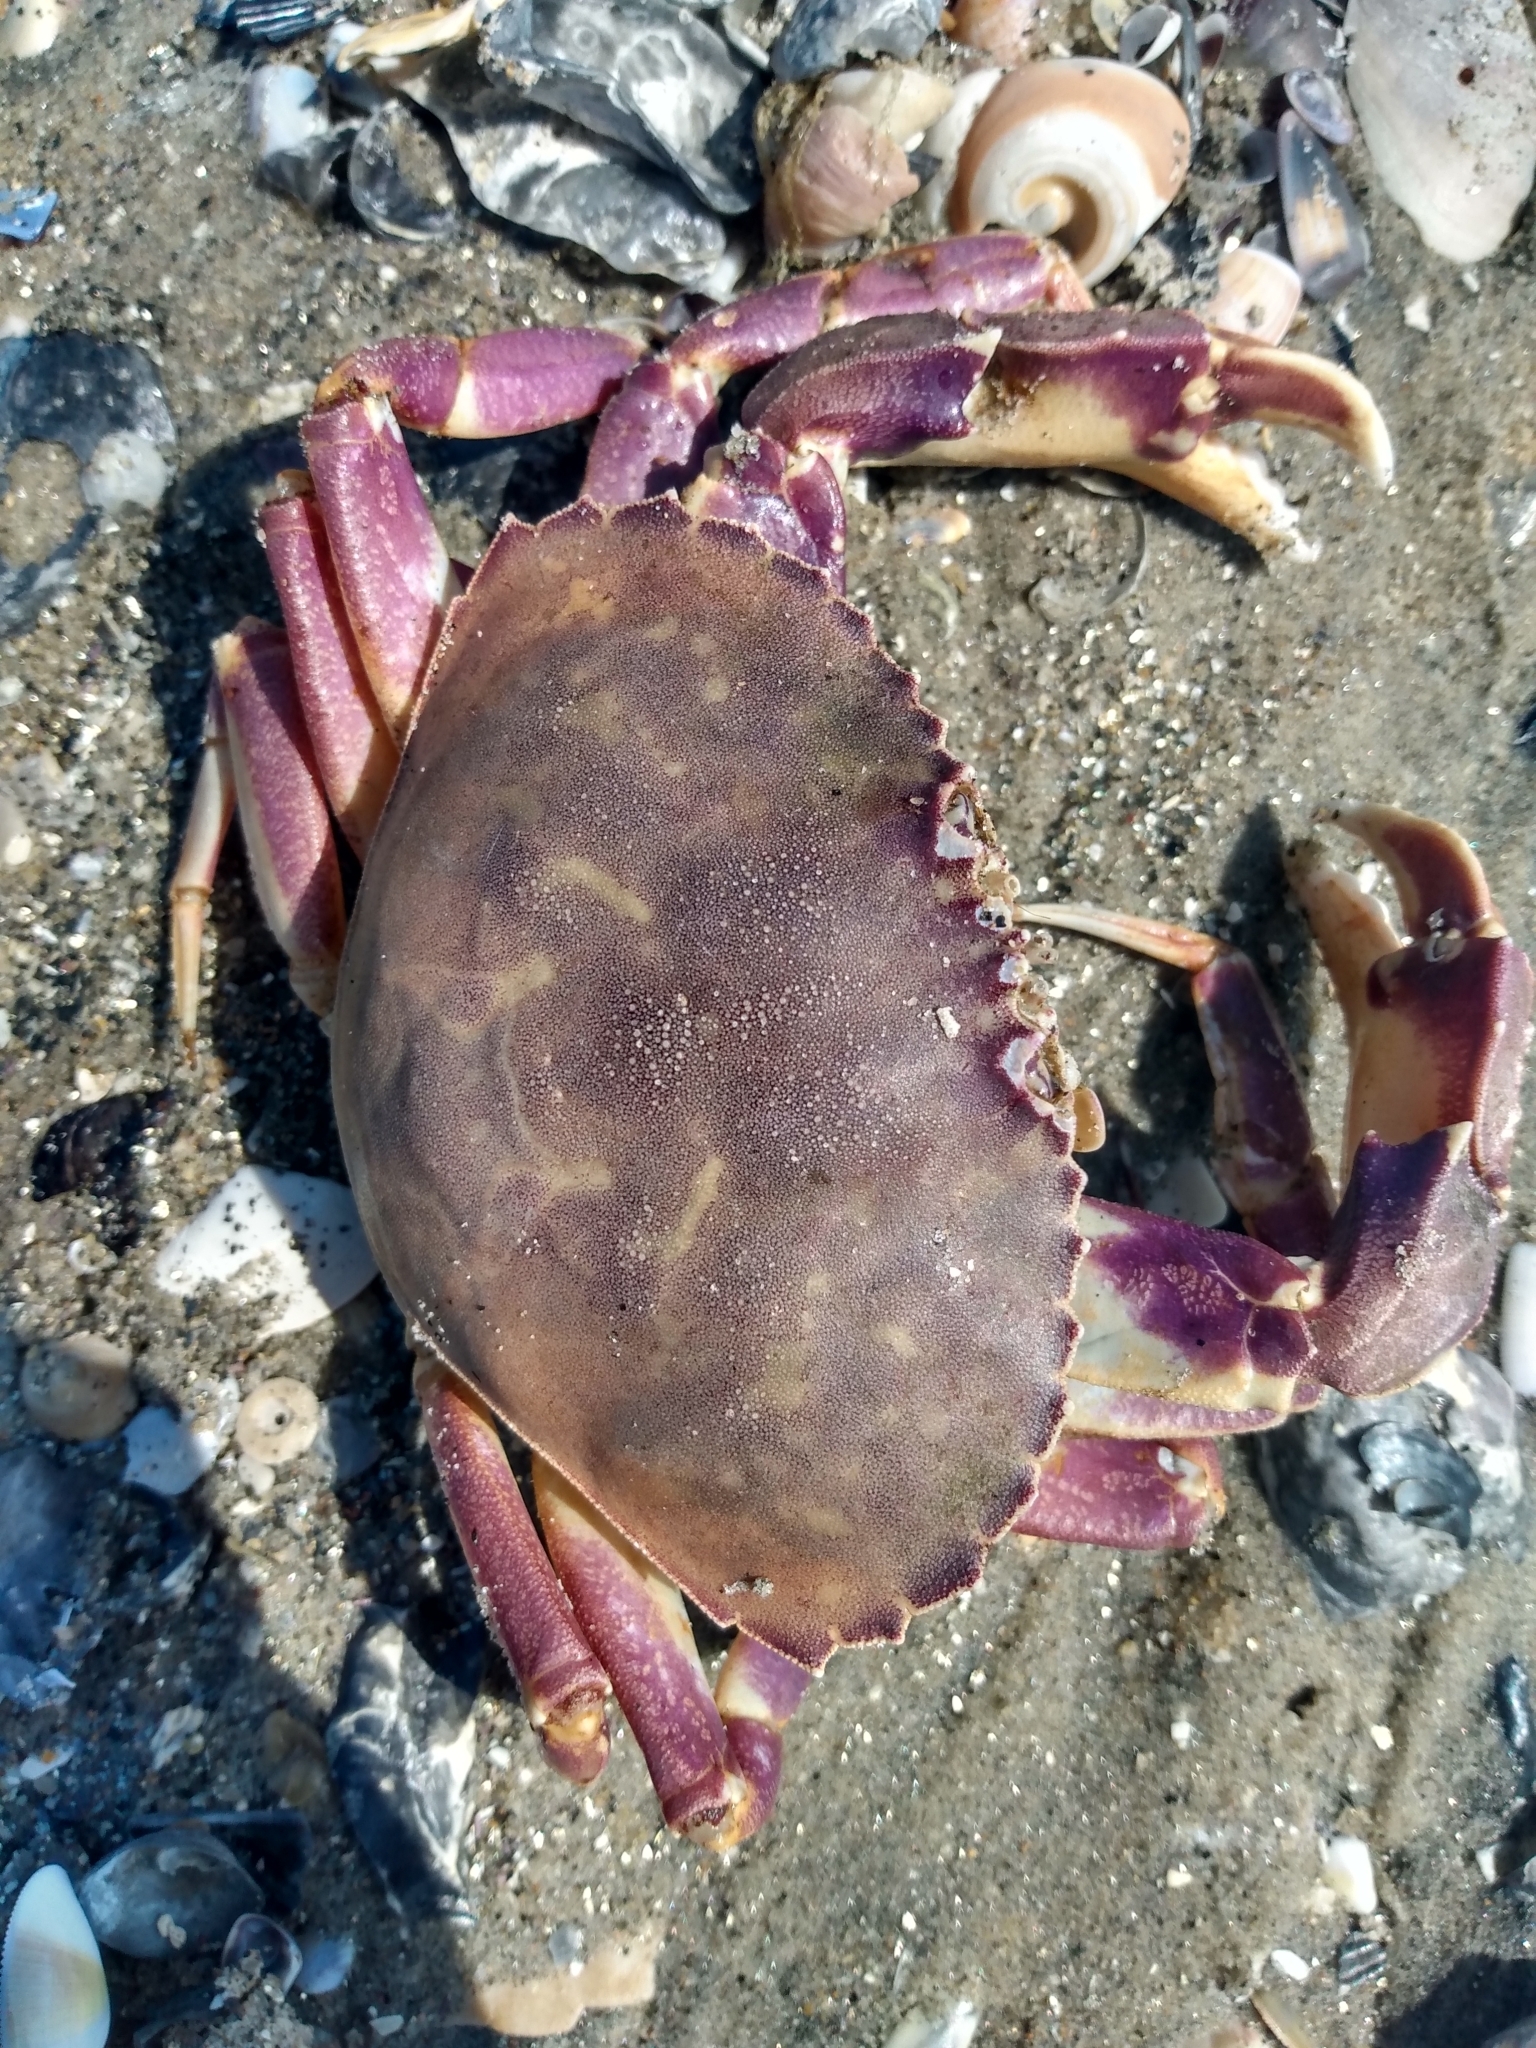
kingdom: Animalia
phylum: Arthropoda
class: Malacostraca
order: Decapoda
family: Cancridae
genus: Metacarcinus
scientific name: Metacarcinus gracilis
